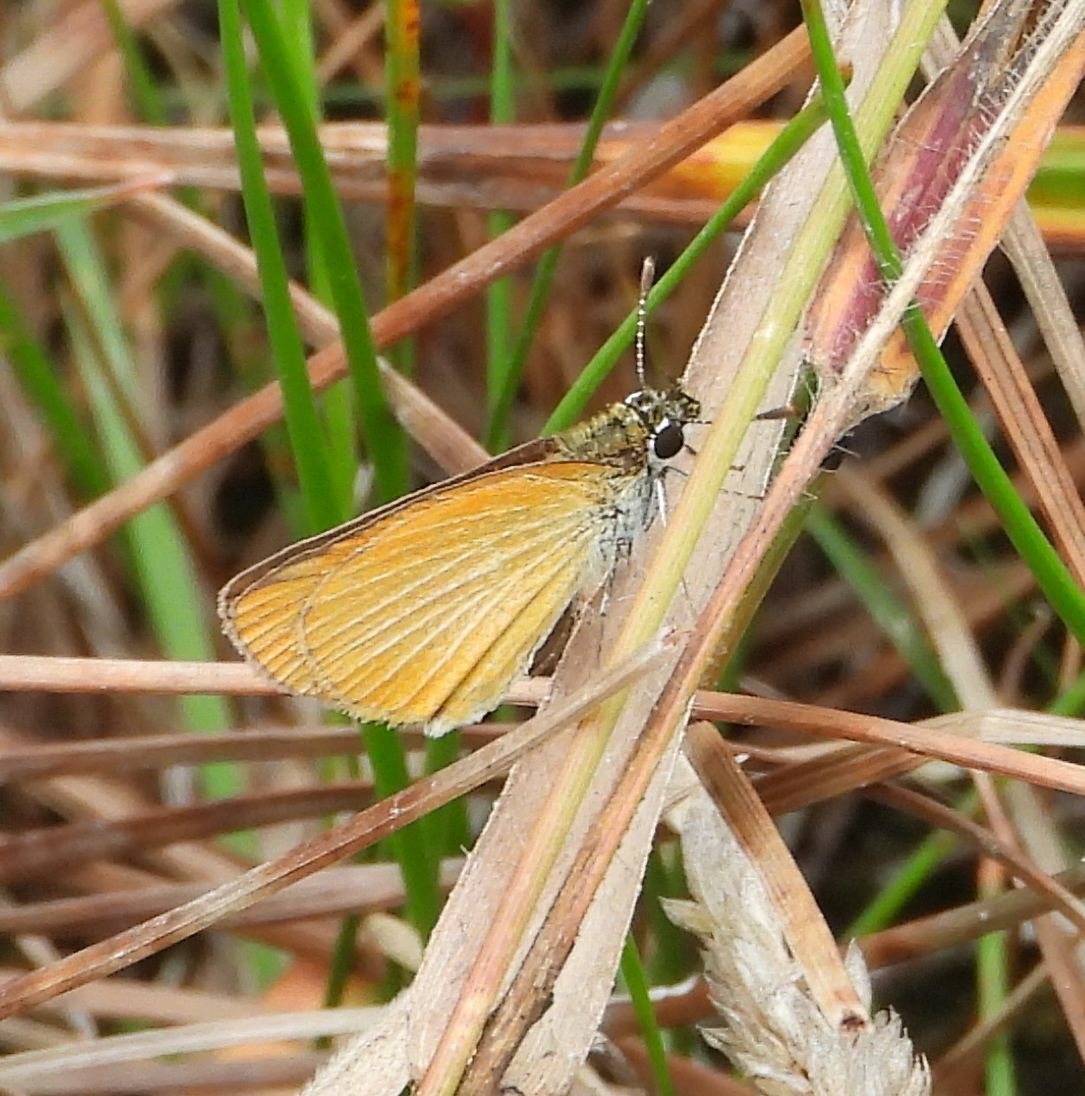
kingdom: Animalia
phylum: Arthropoda
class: Insecta
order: Lepidoptera
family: Hesperiidae
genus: Ancyloxypha
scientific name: Ancyloxypha numitor
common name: Least skipper
